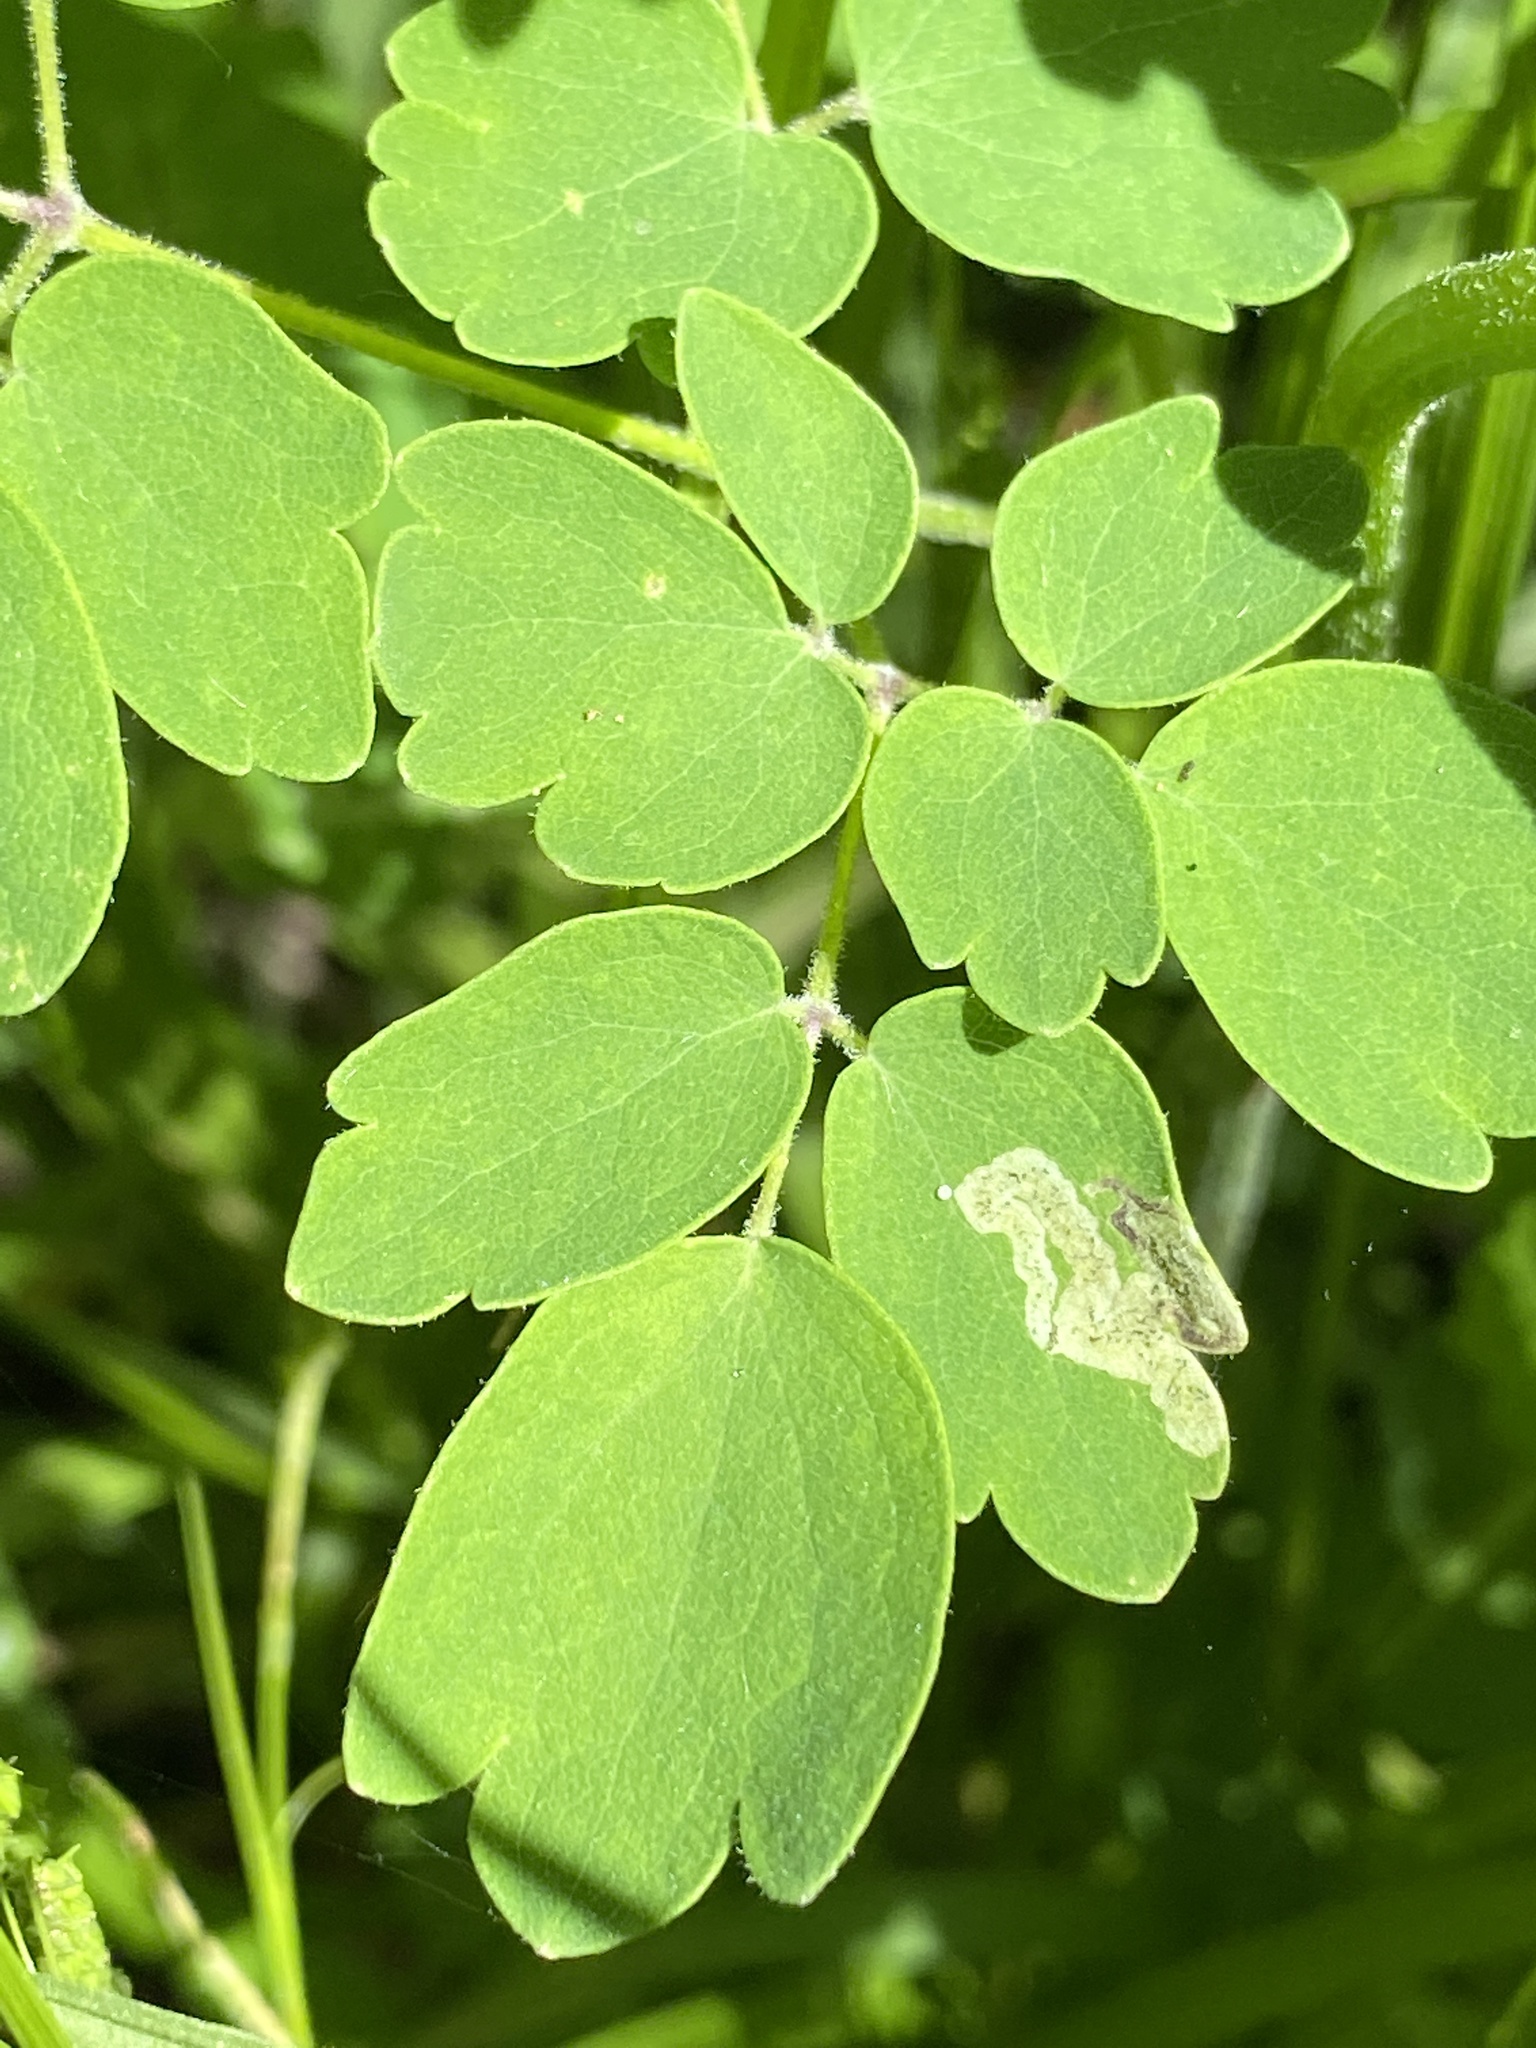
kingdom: Plantae
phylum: Tracheophyta
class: Magnoliopsida
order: Ranunculales
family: Ranunculaceae
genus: Thalictrum
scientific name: Thalictrum pubescens
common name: King-of-the-meadow
